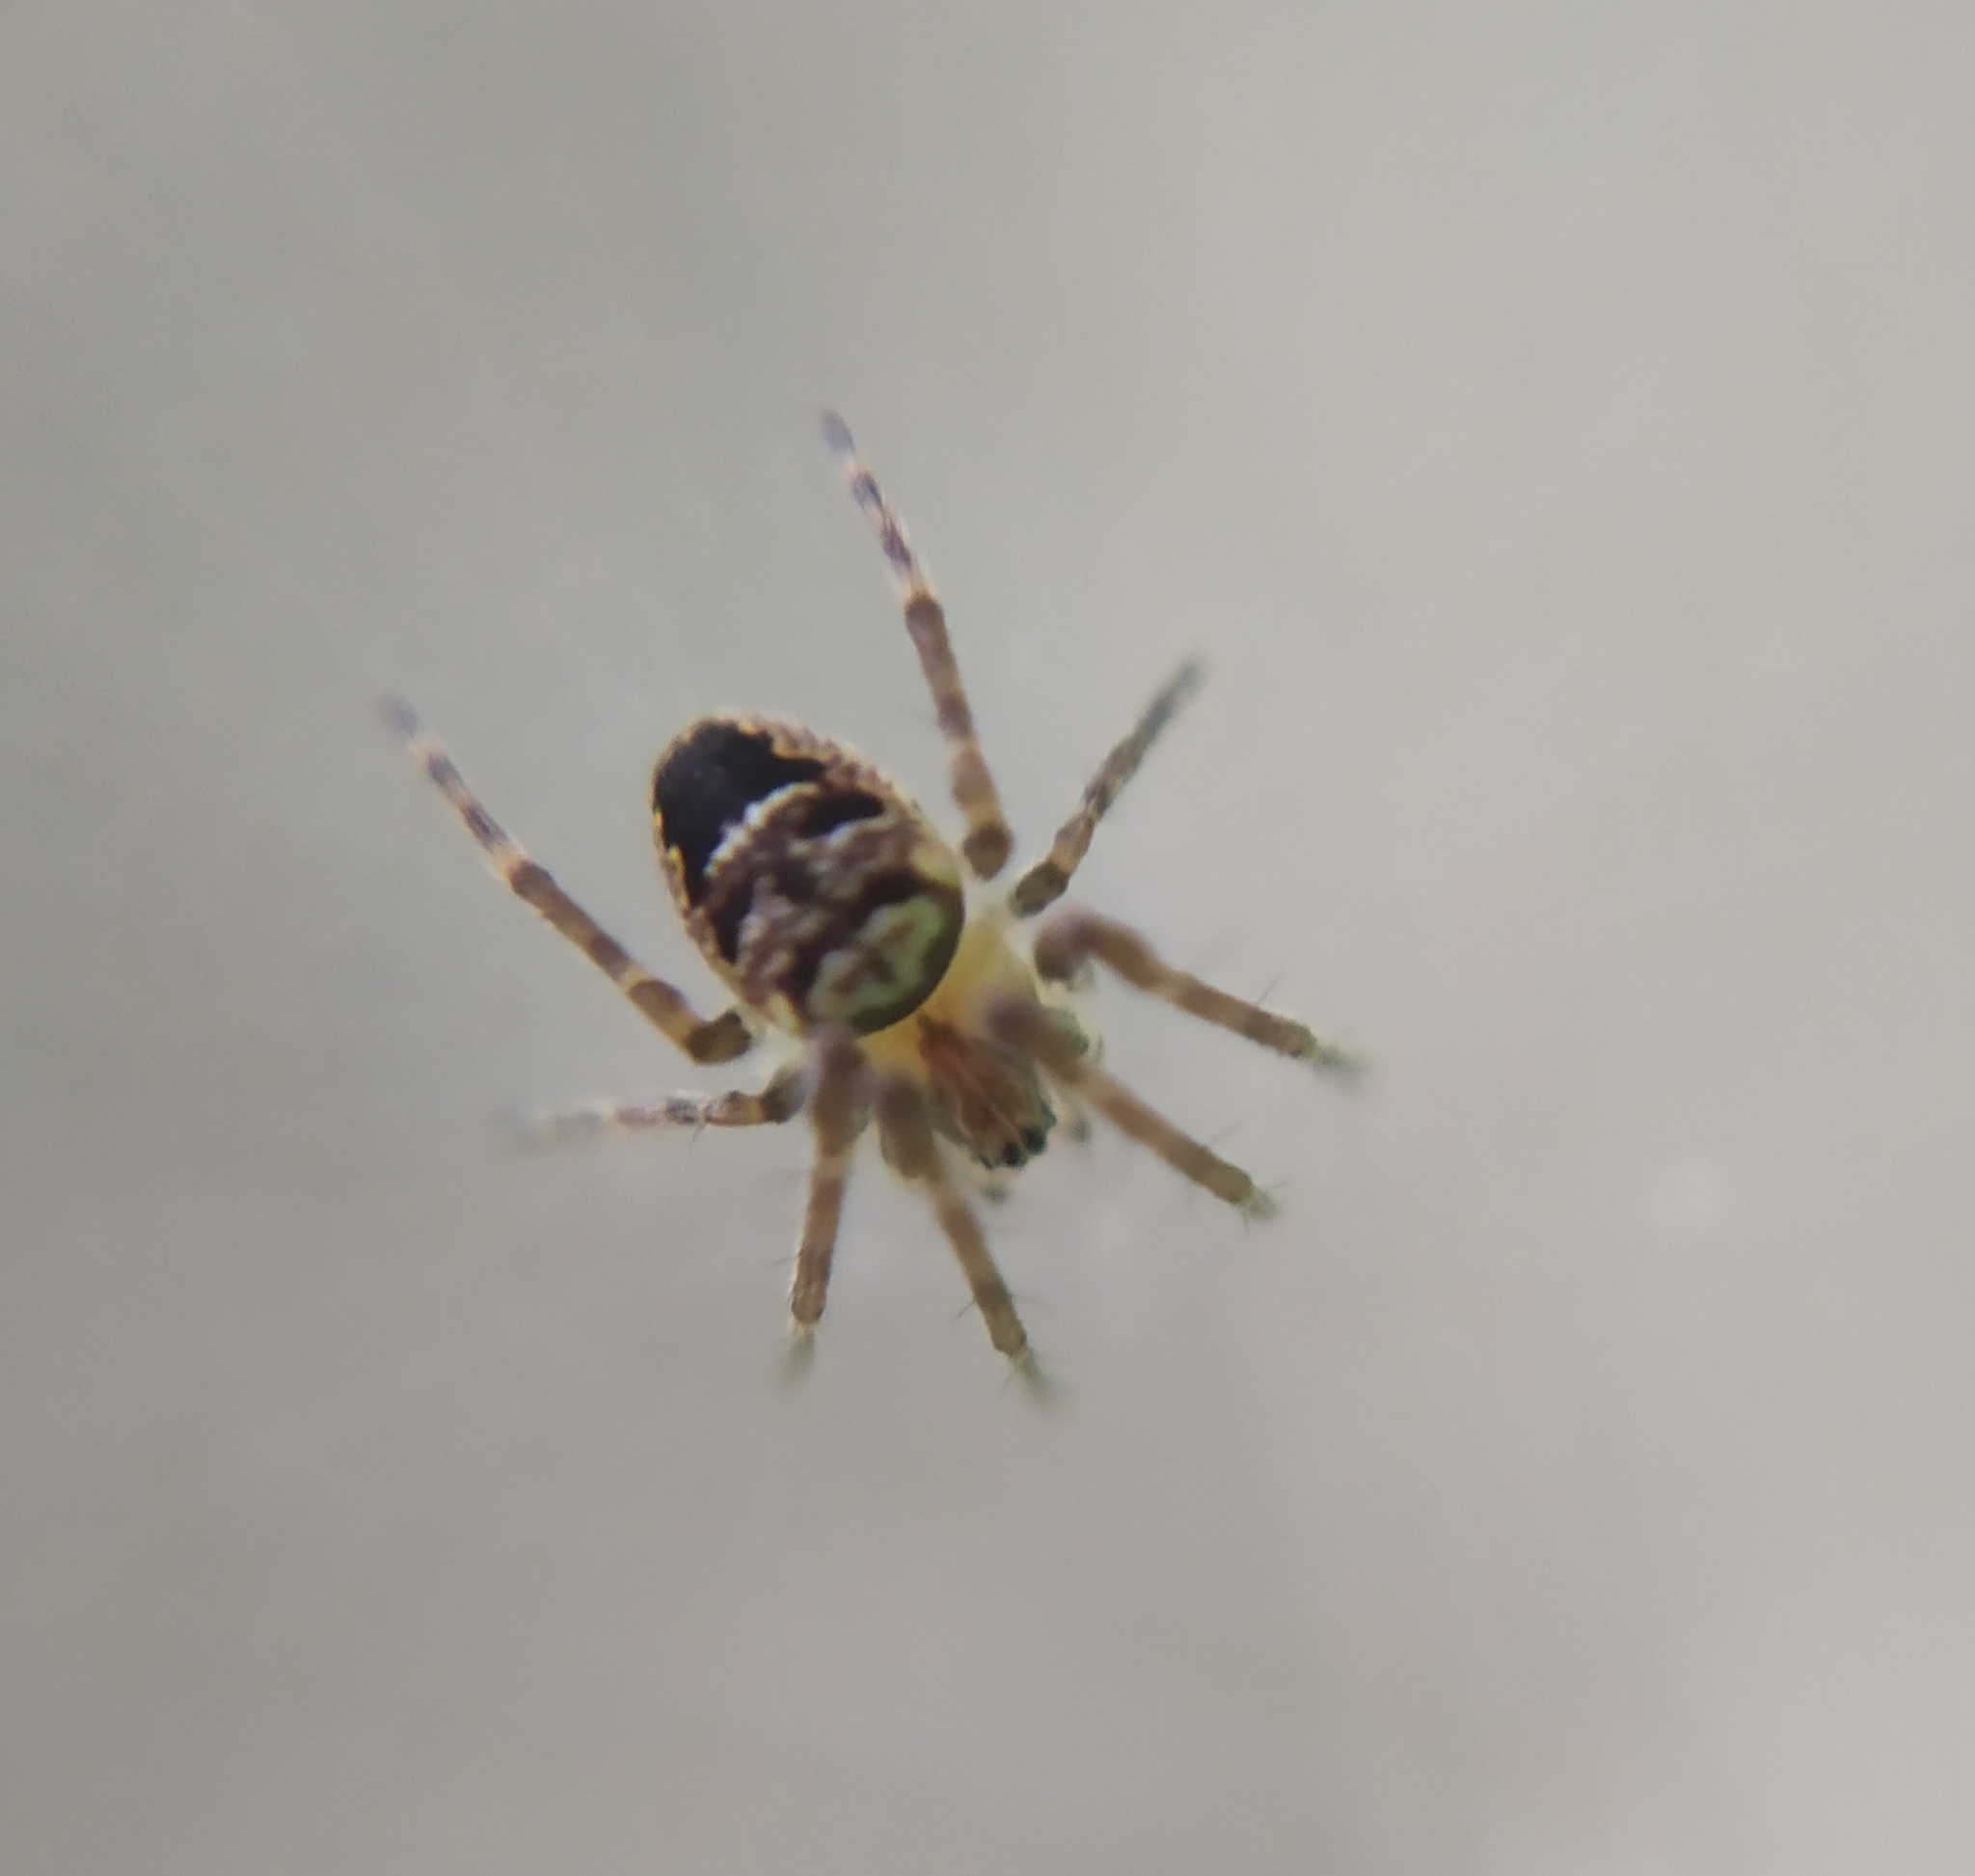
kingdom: Animalia
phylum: Arthropoda
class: Arachnida
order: Araneae
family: Araneidae
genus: Zilla
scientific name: Zilla diodia
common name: Zilla diodia
